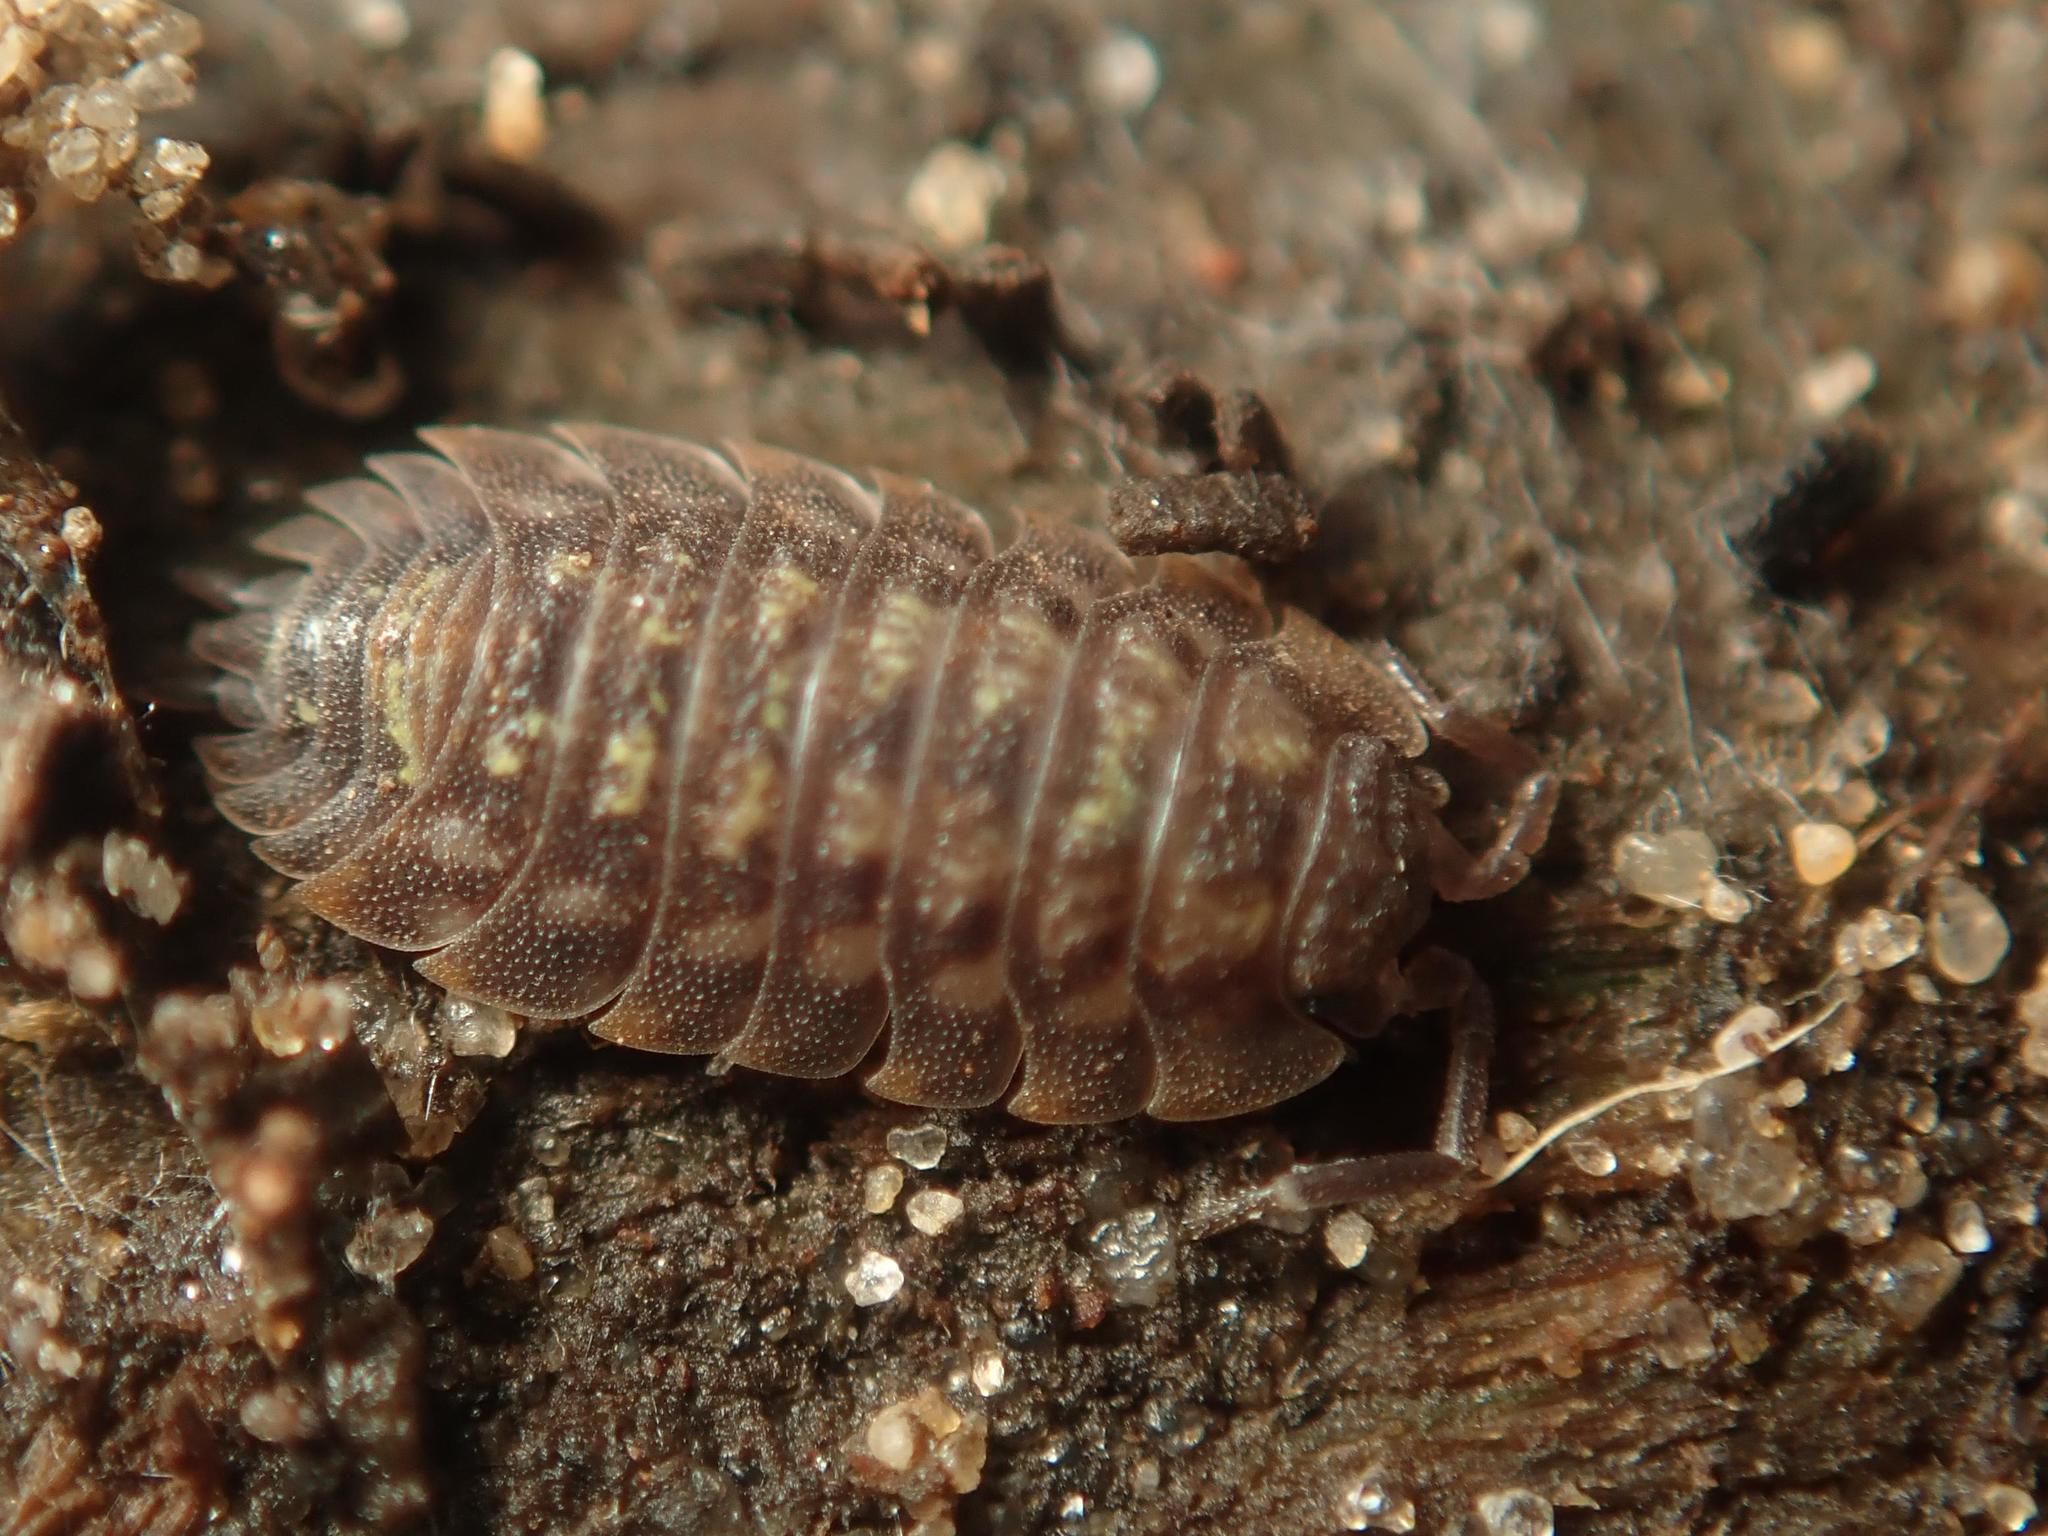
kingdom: Animalia
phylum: Arthropoda
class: Malacostraca
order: Isopoda
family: Oniscidae
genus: Oniscus
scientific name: Oniscus asellus
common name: Common shiny woodlouse
